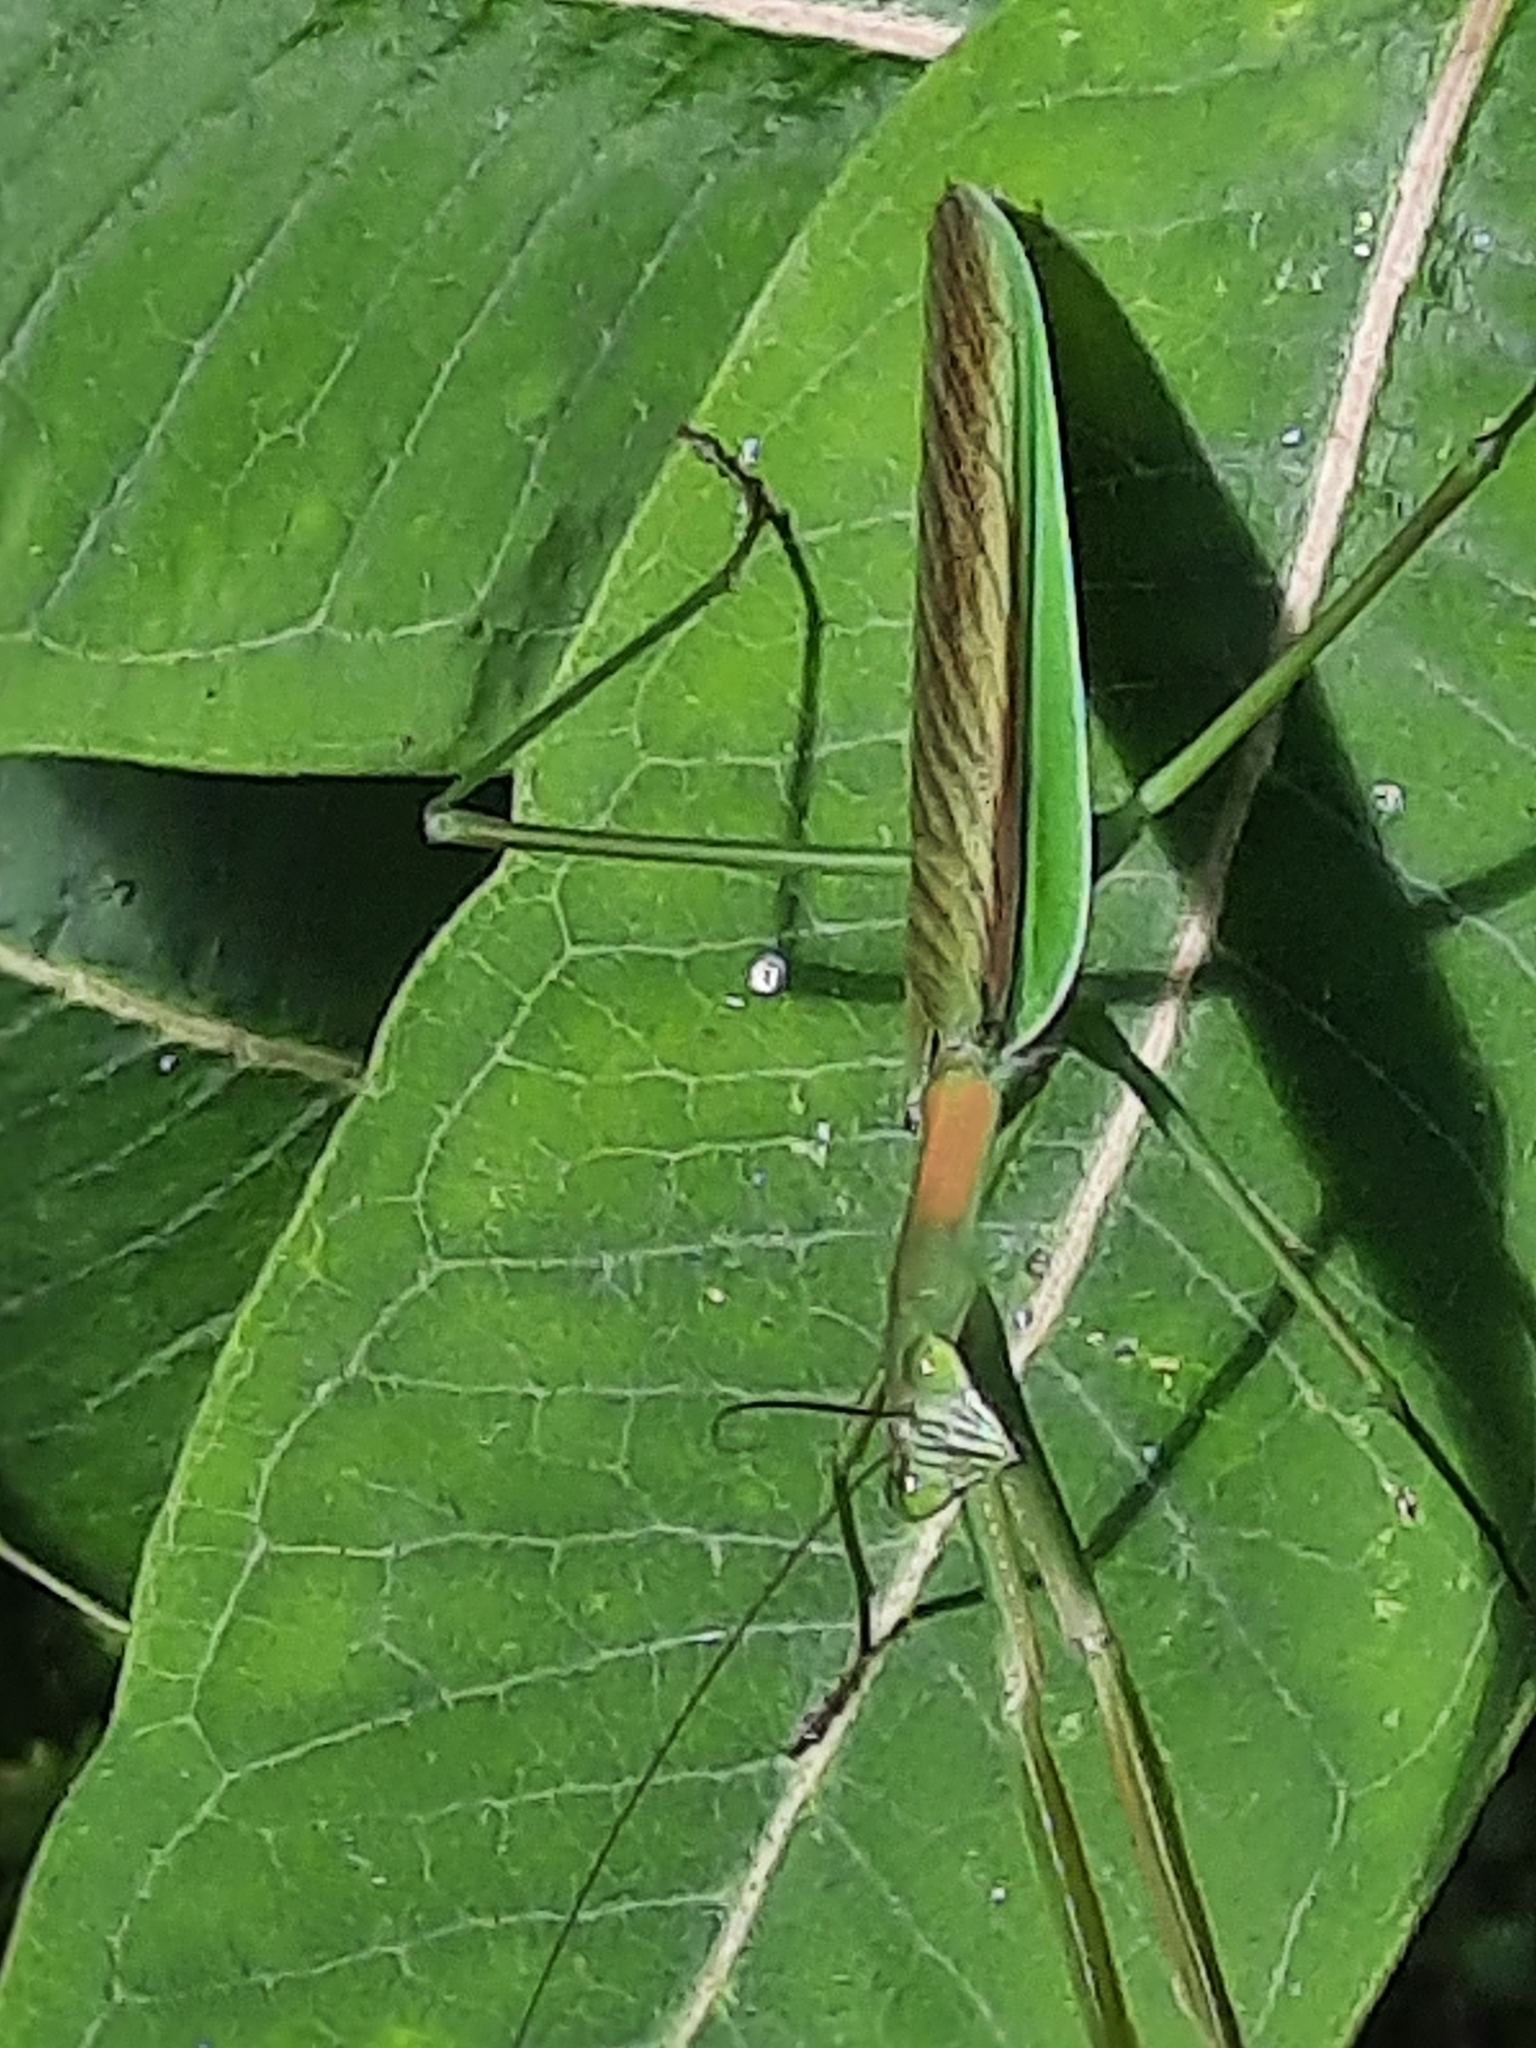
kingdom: Animalia
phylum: Arthropoda
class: Insecta
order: Mantodea
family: Mantidae
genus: Tenodera
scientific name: Tenodera angustipennis
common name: Asian mantis
